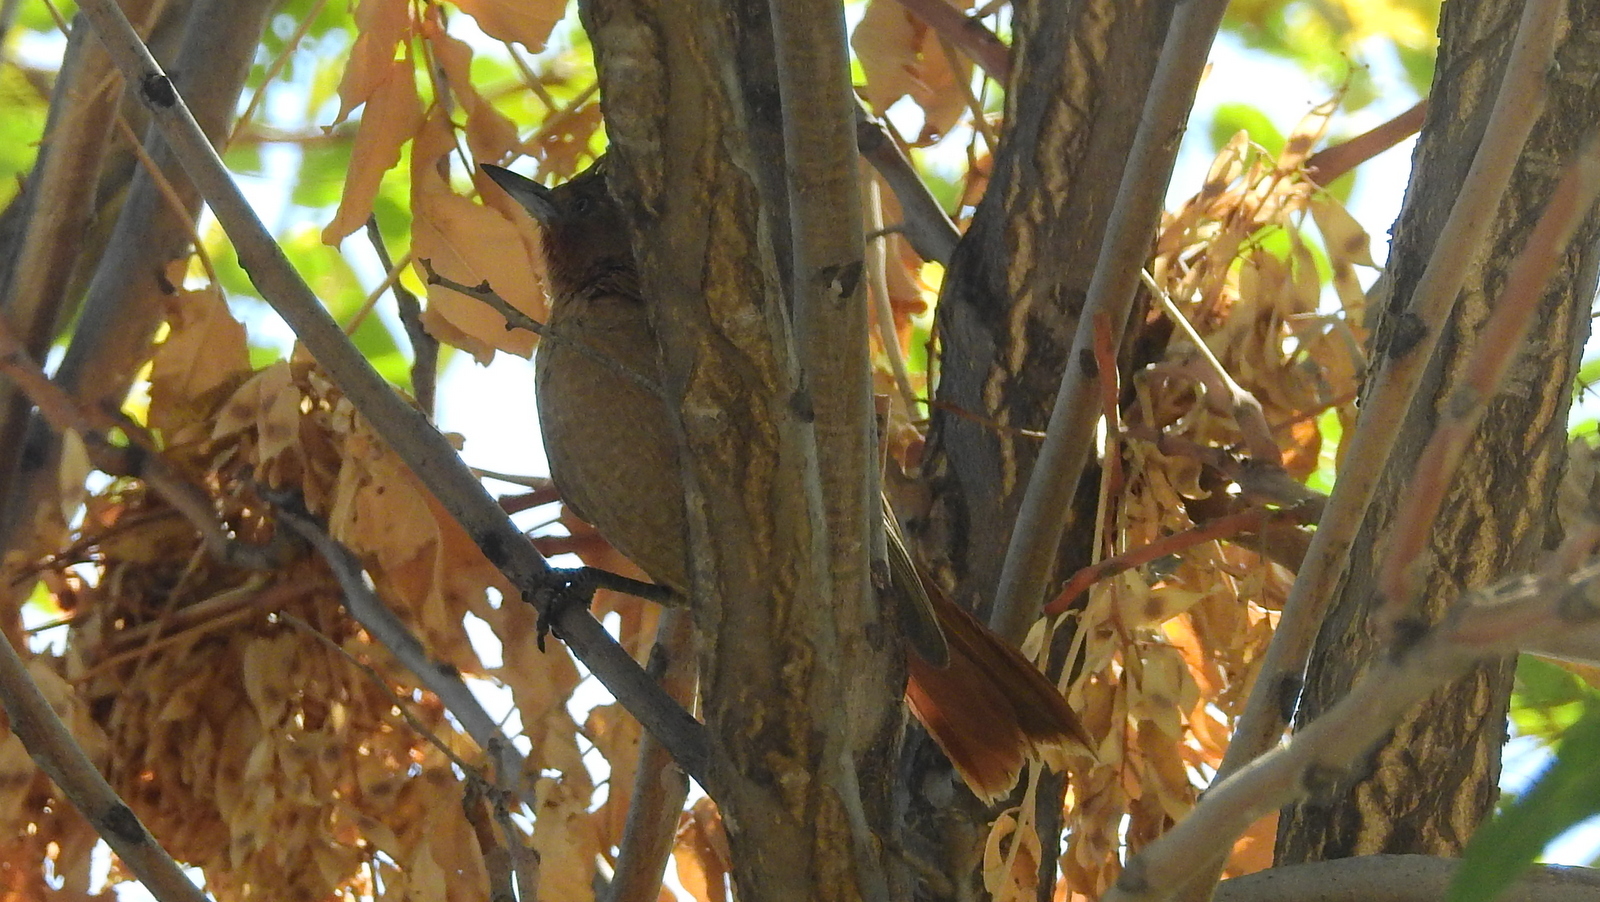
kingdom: Animalia
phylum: Chordata
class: Aves
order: Passeriformes
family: Furnariidae
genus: Pseudoseisura
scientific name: Pseudoseisura lophotes
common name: Brown cacholote
